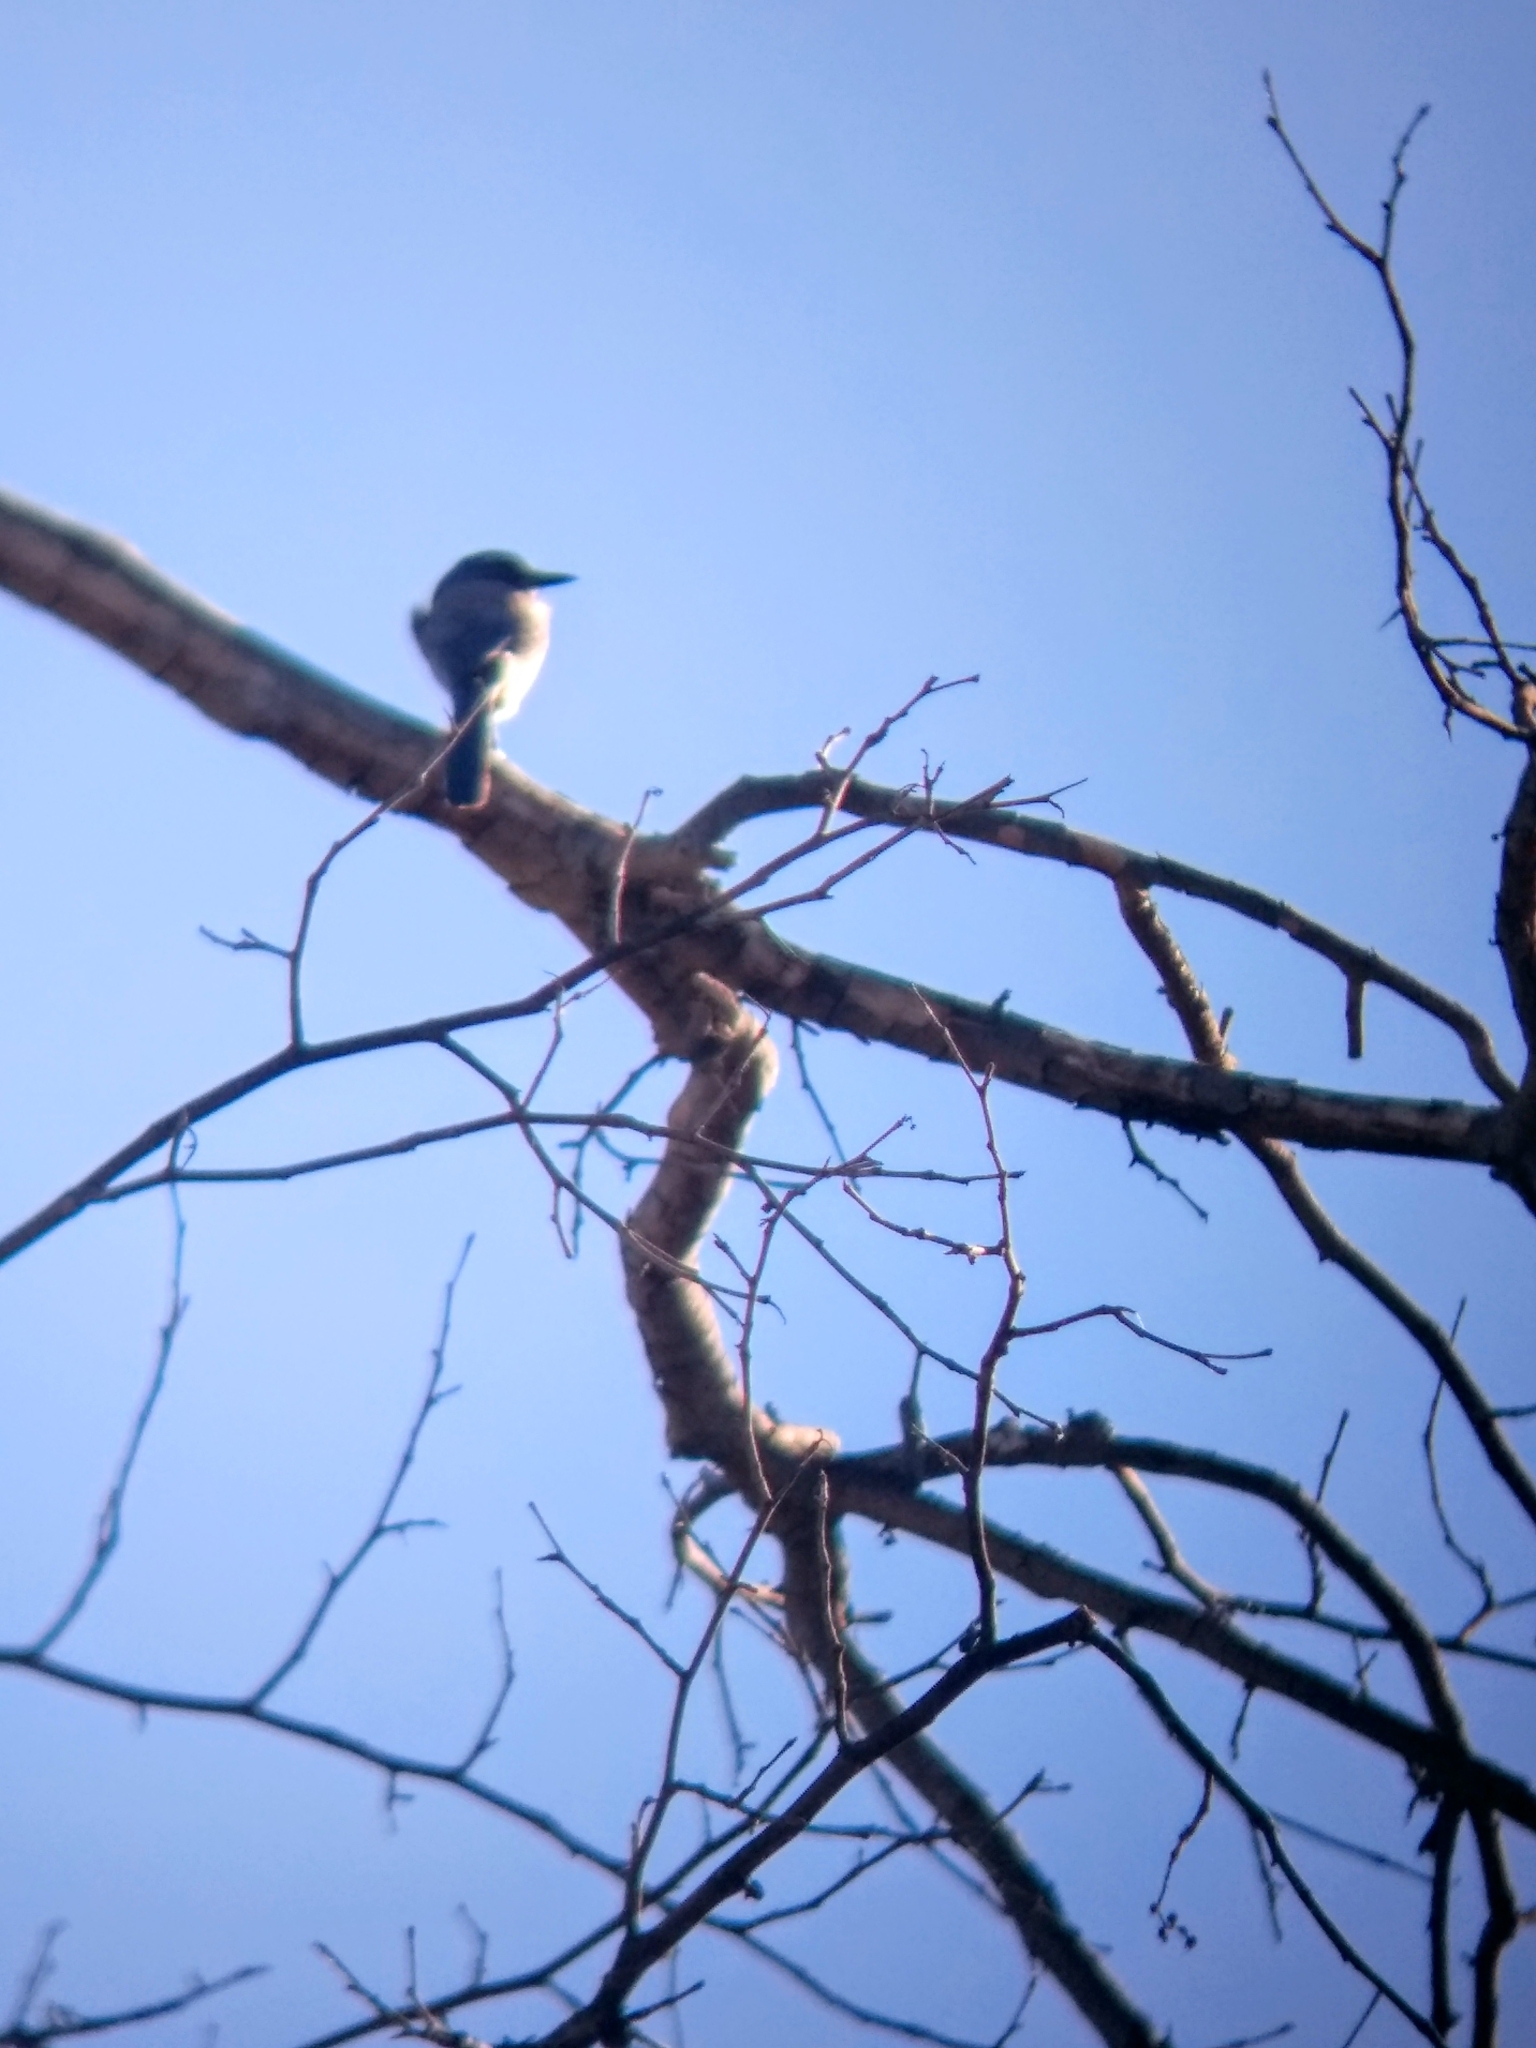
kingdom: Animalia
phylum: Chordata
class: Aves
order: Passeriformes
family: Corvidae
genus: Aphelocoma
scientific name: Aphelocoma californica
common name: California scrub-jay
